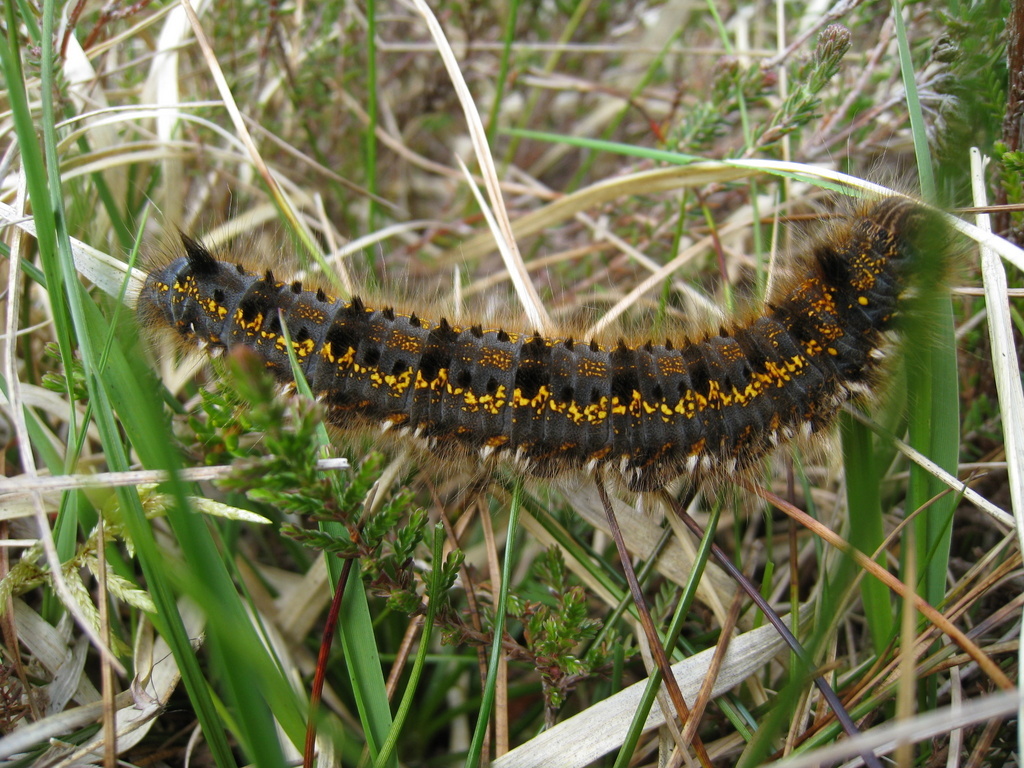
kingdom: Animalia
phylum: Arthropoda
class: Insecta
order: Lepidoptera
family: Lasiocampidae
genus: Euthrix
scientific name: Euthrix potatoria
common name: Drinker
